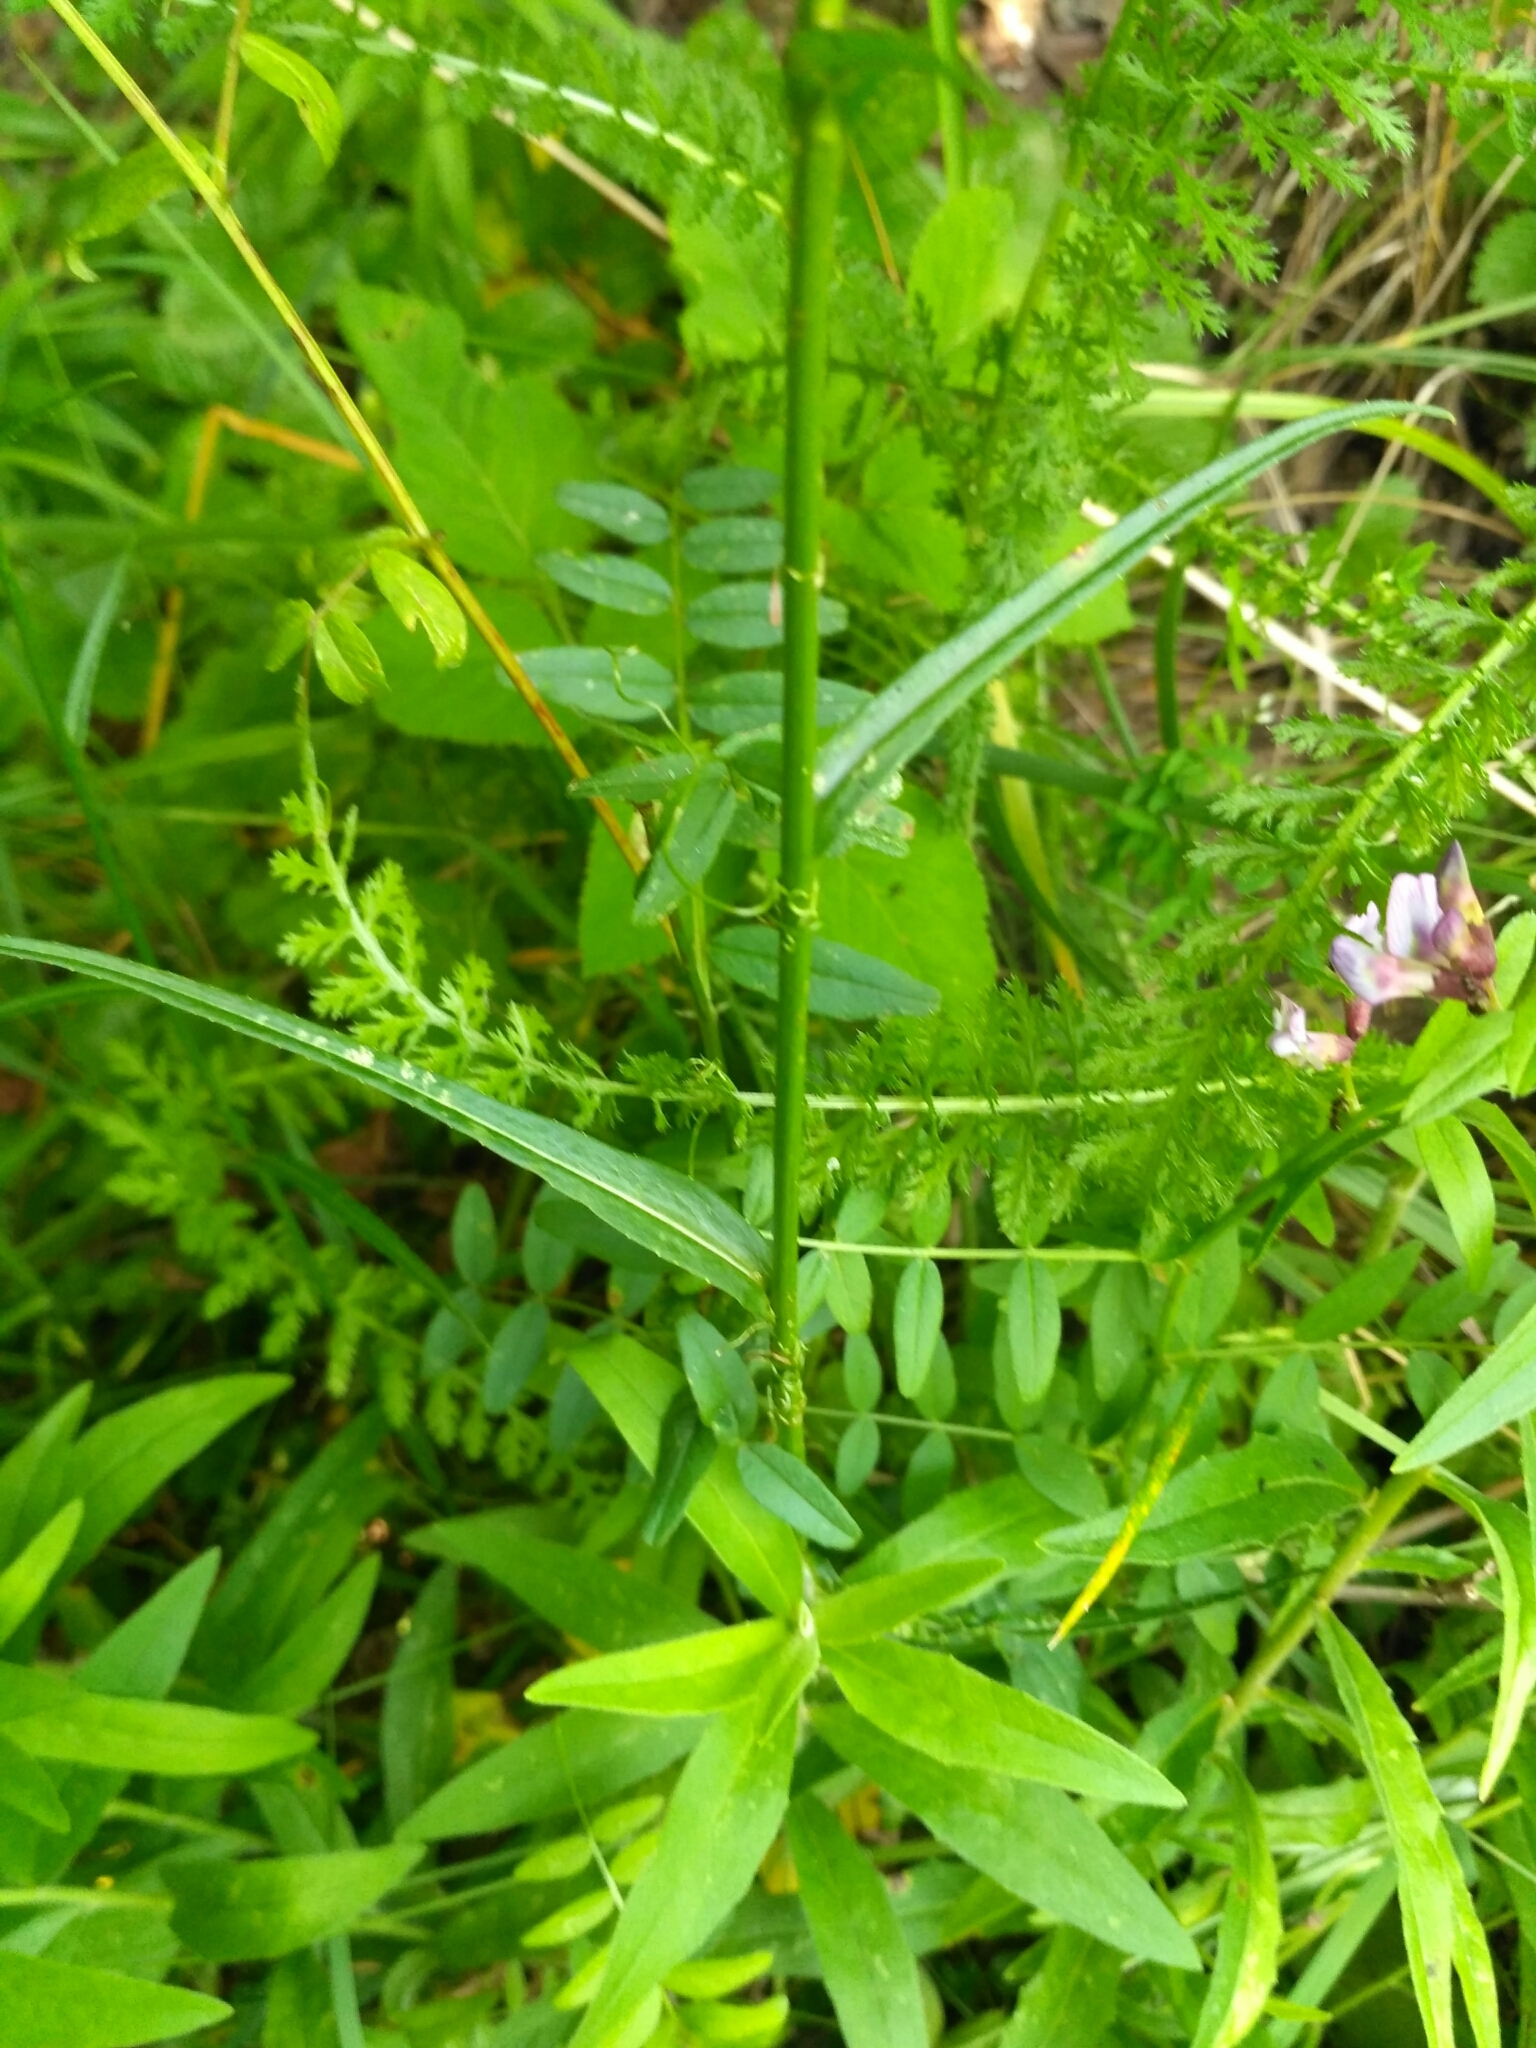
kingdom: Plantae
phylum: Tracheophyta
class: Magnoliopsida
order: Asterales
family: Campanulaceae
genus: Campanula
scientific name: Campanula persicifolia
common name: Peach-leaved bellflower
